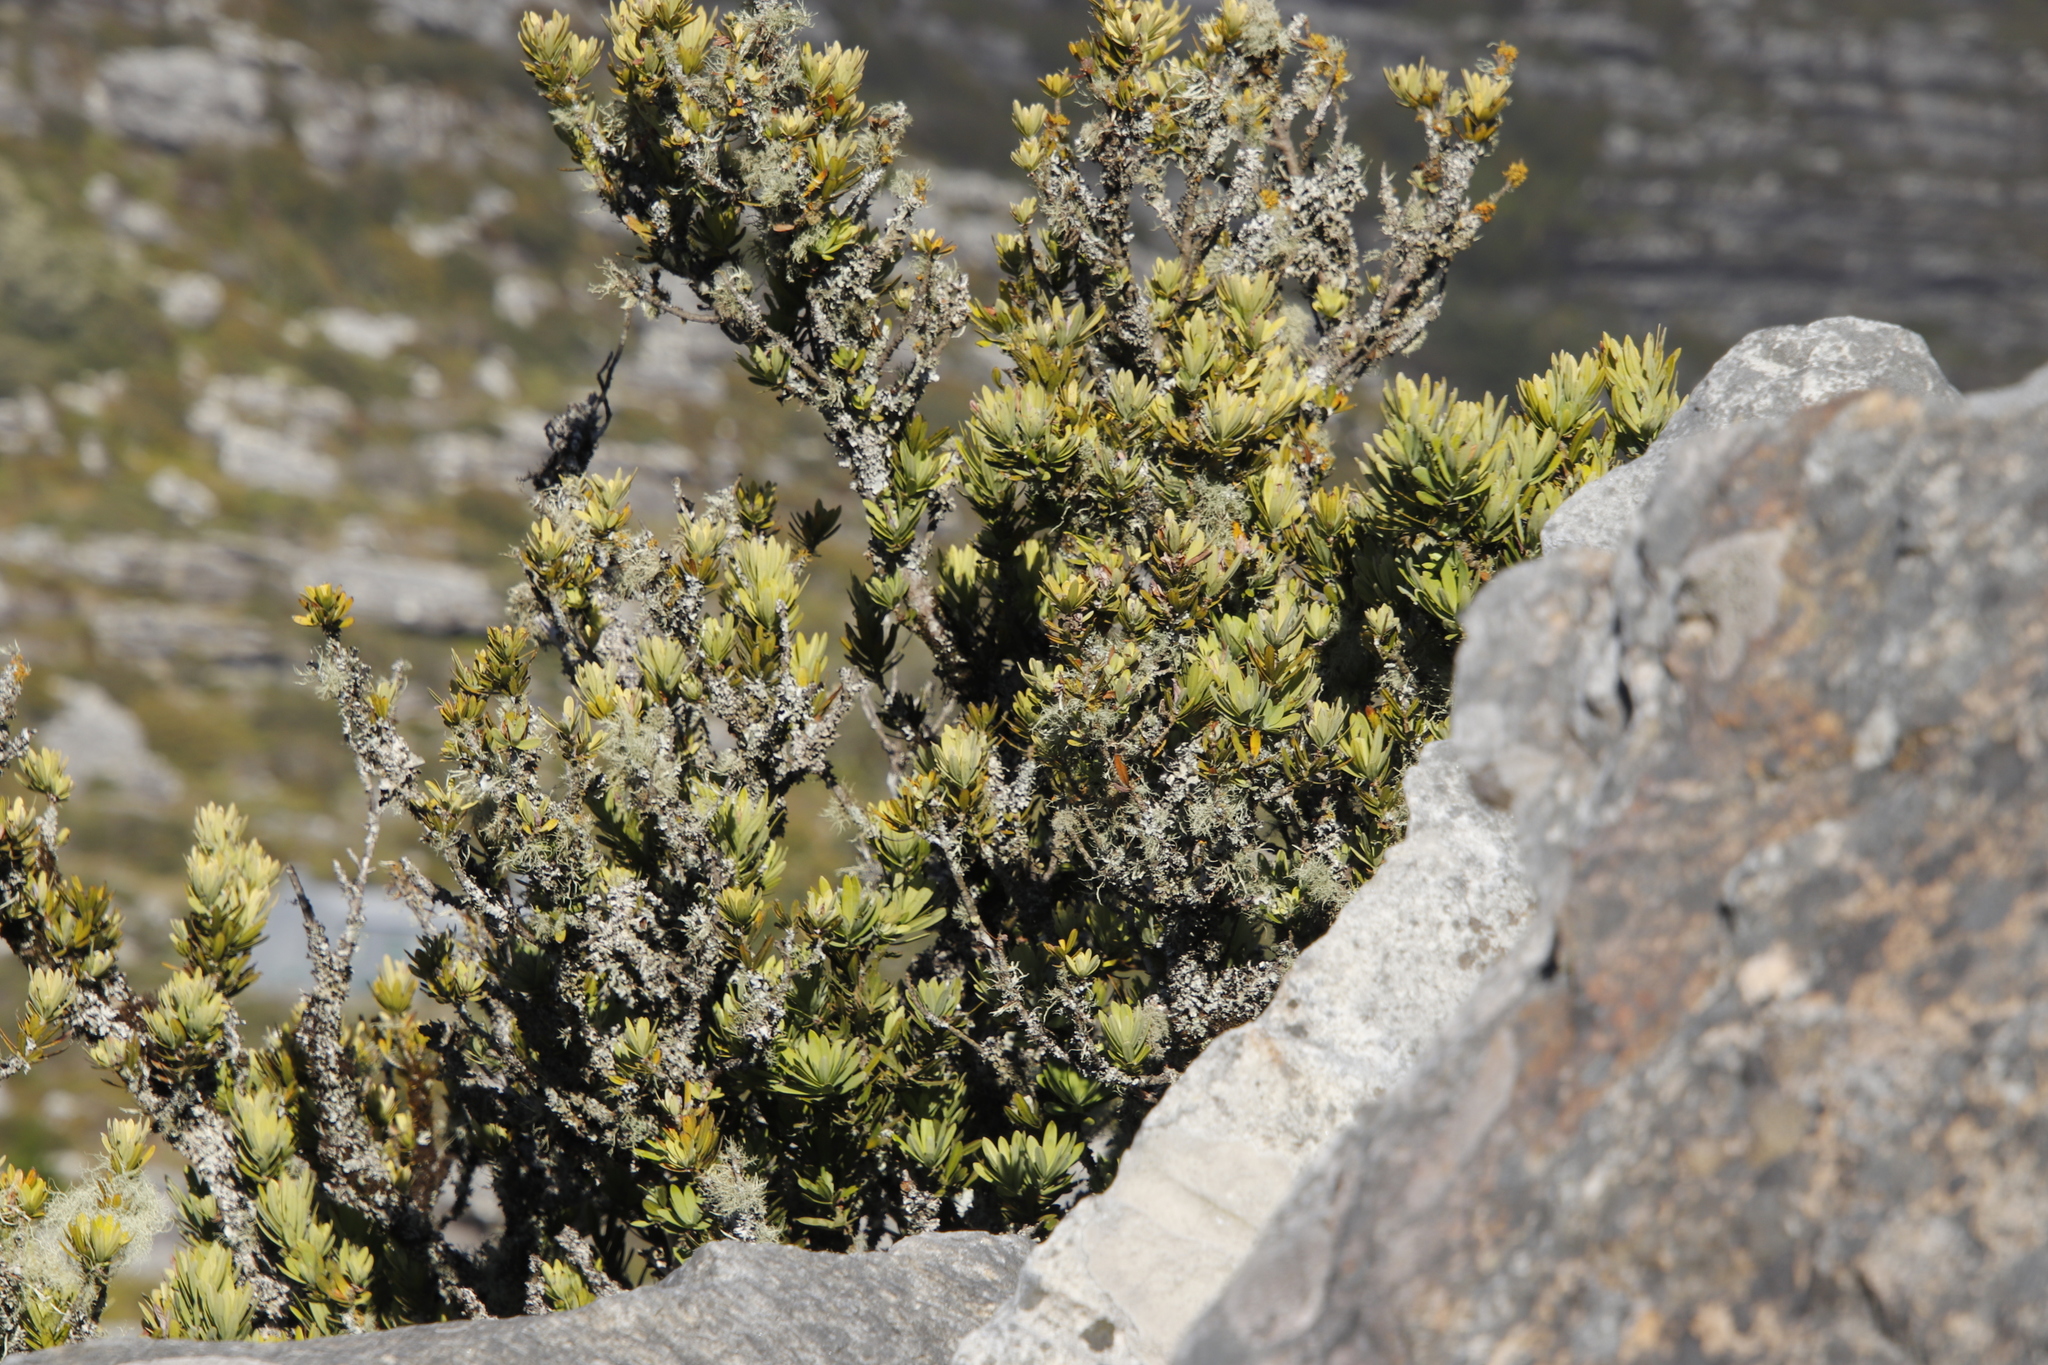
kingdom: Plantae
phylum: Tracheophyta
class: Pinopsida
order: Pinales
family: Podocarpaceae
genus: Podocarpus
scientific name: Podocarpus latifolius
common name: True yellowwood
